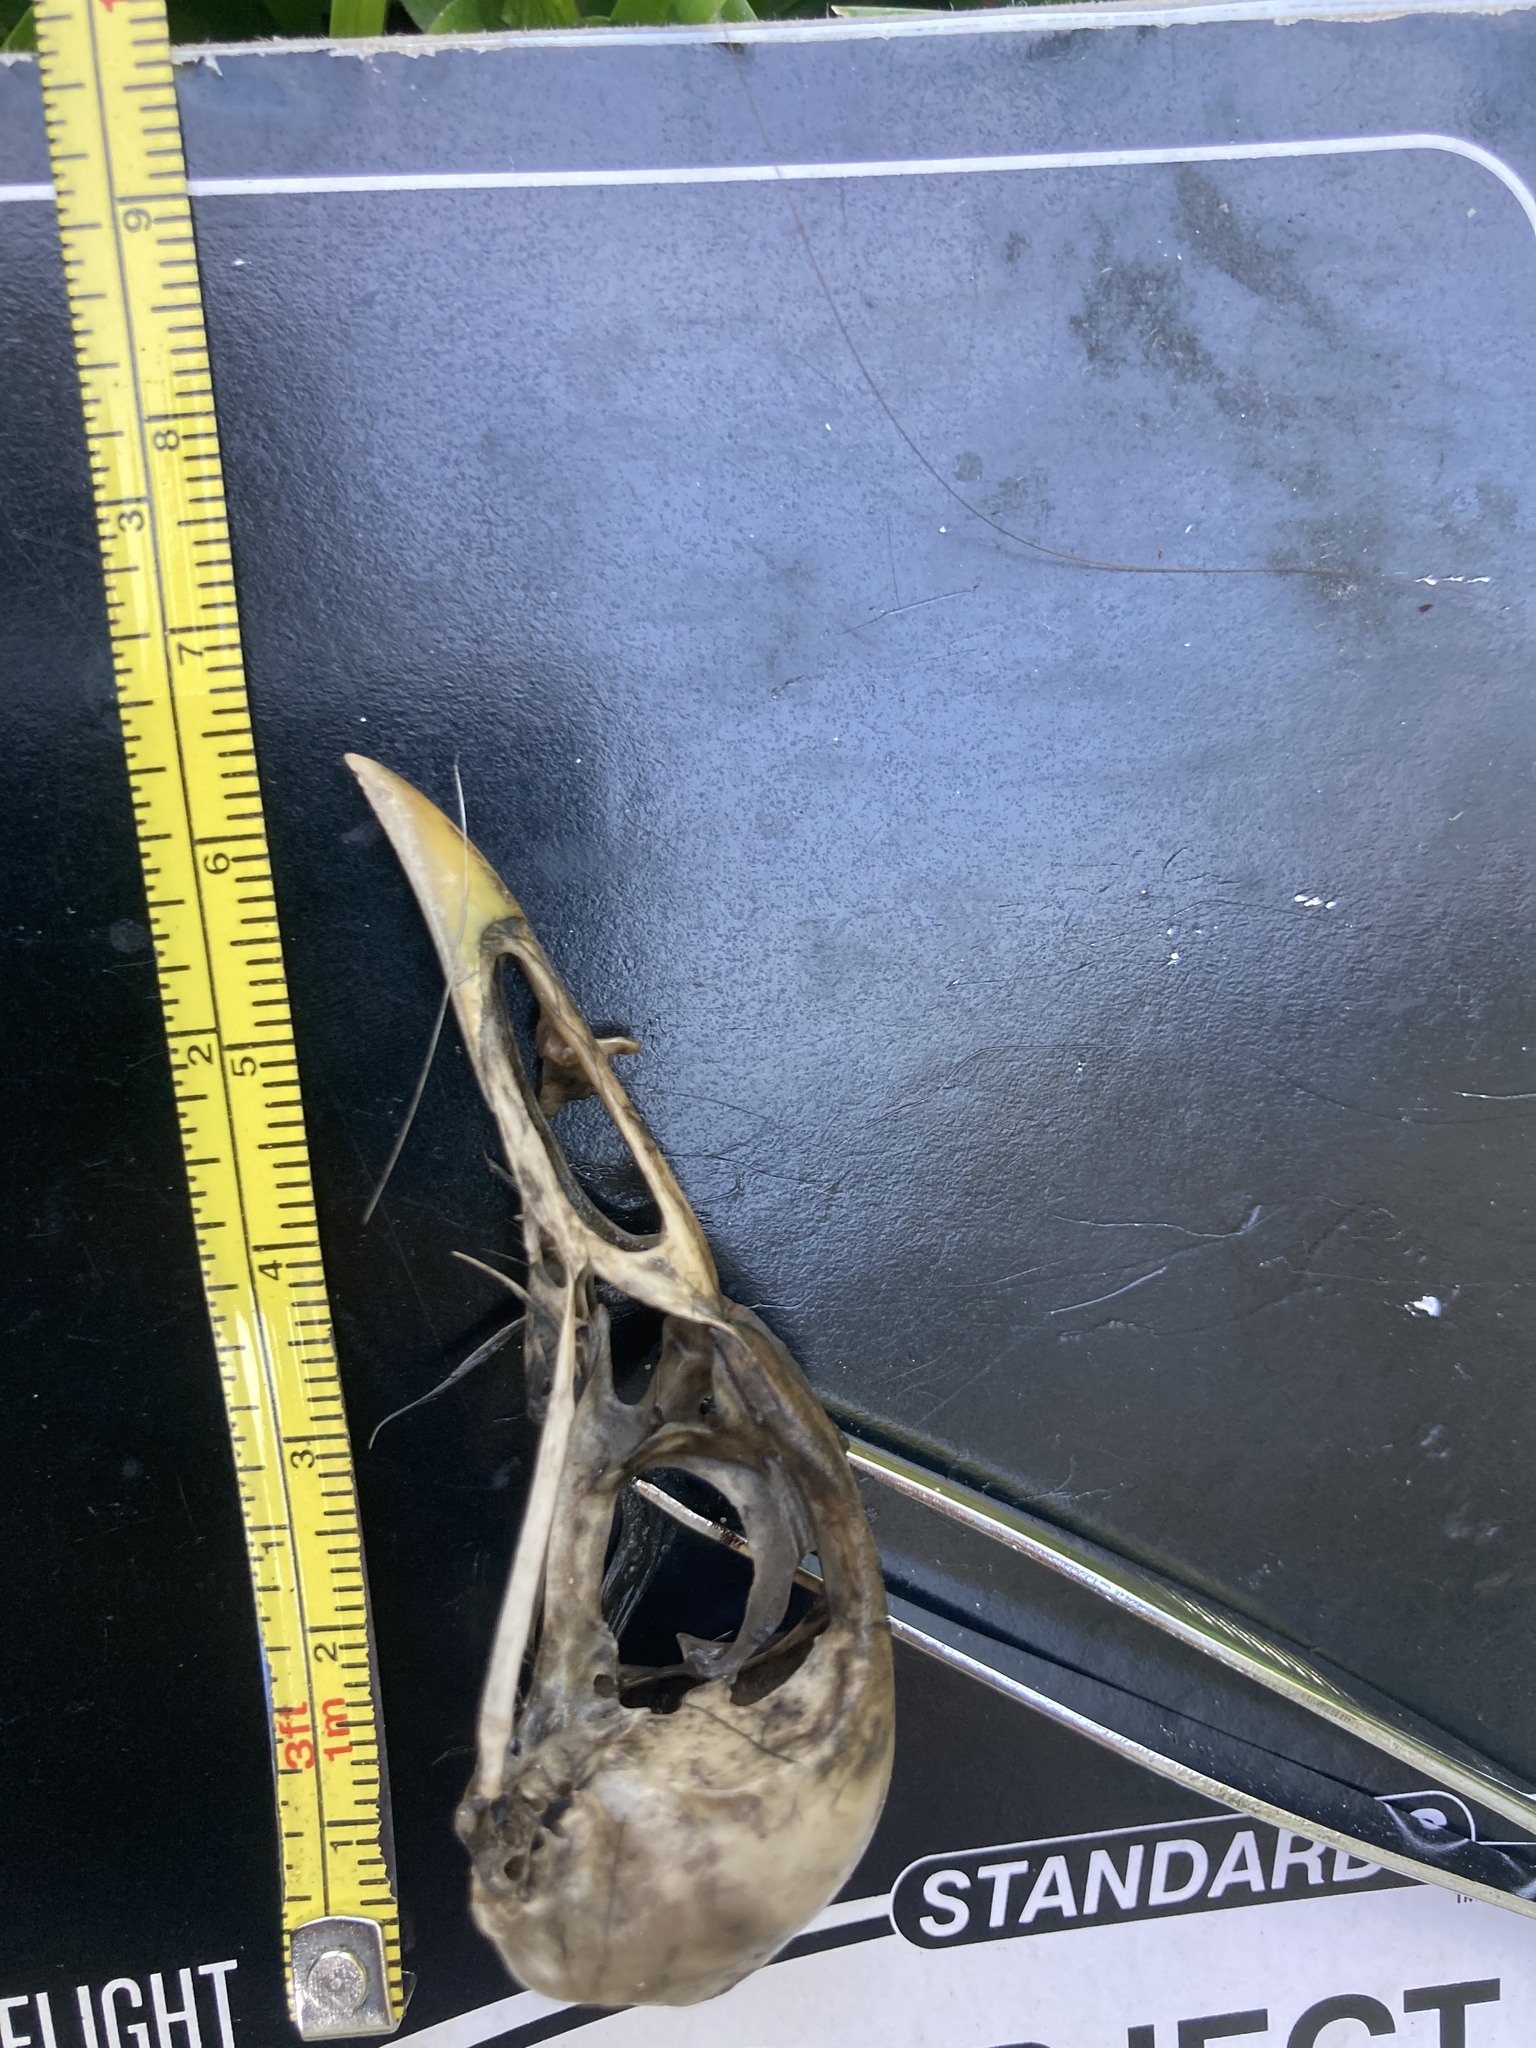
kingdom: Animalia
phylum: Chordata
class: Aves
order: Gruiformes
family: Rallidae
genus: Gallinula
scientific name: Gallinula chloropus
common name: Common moorhen
